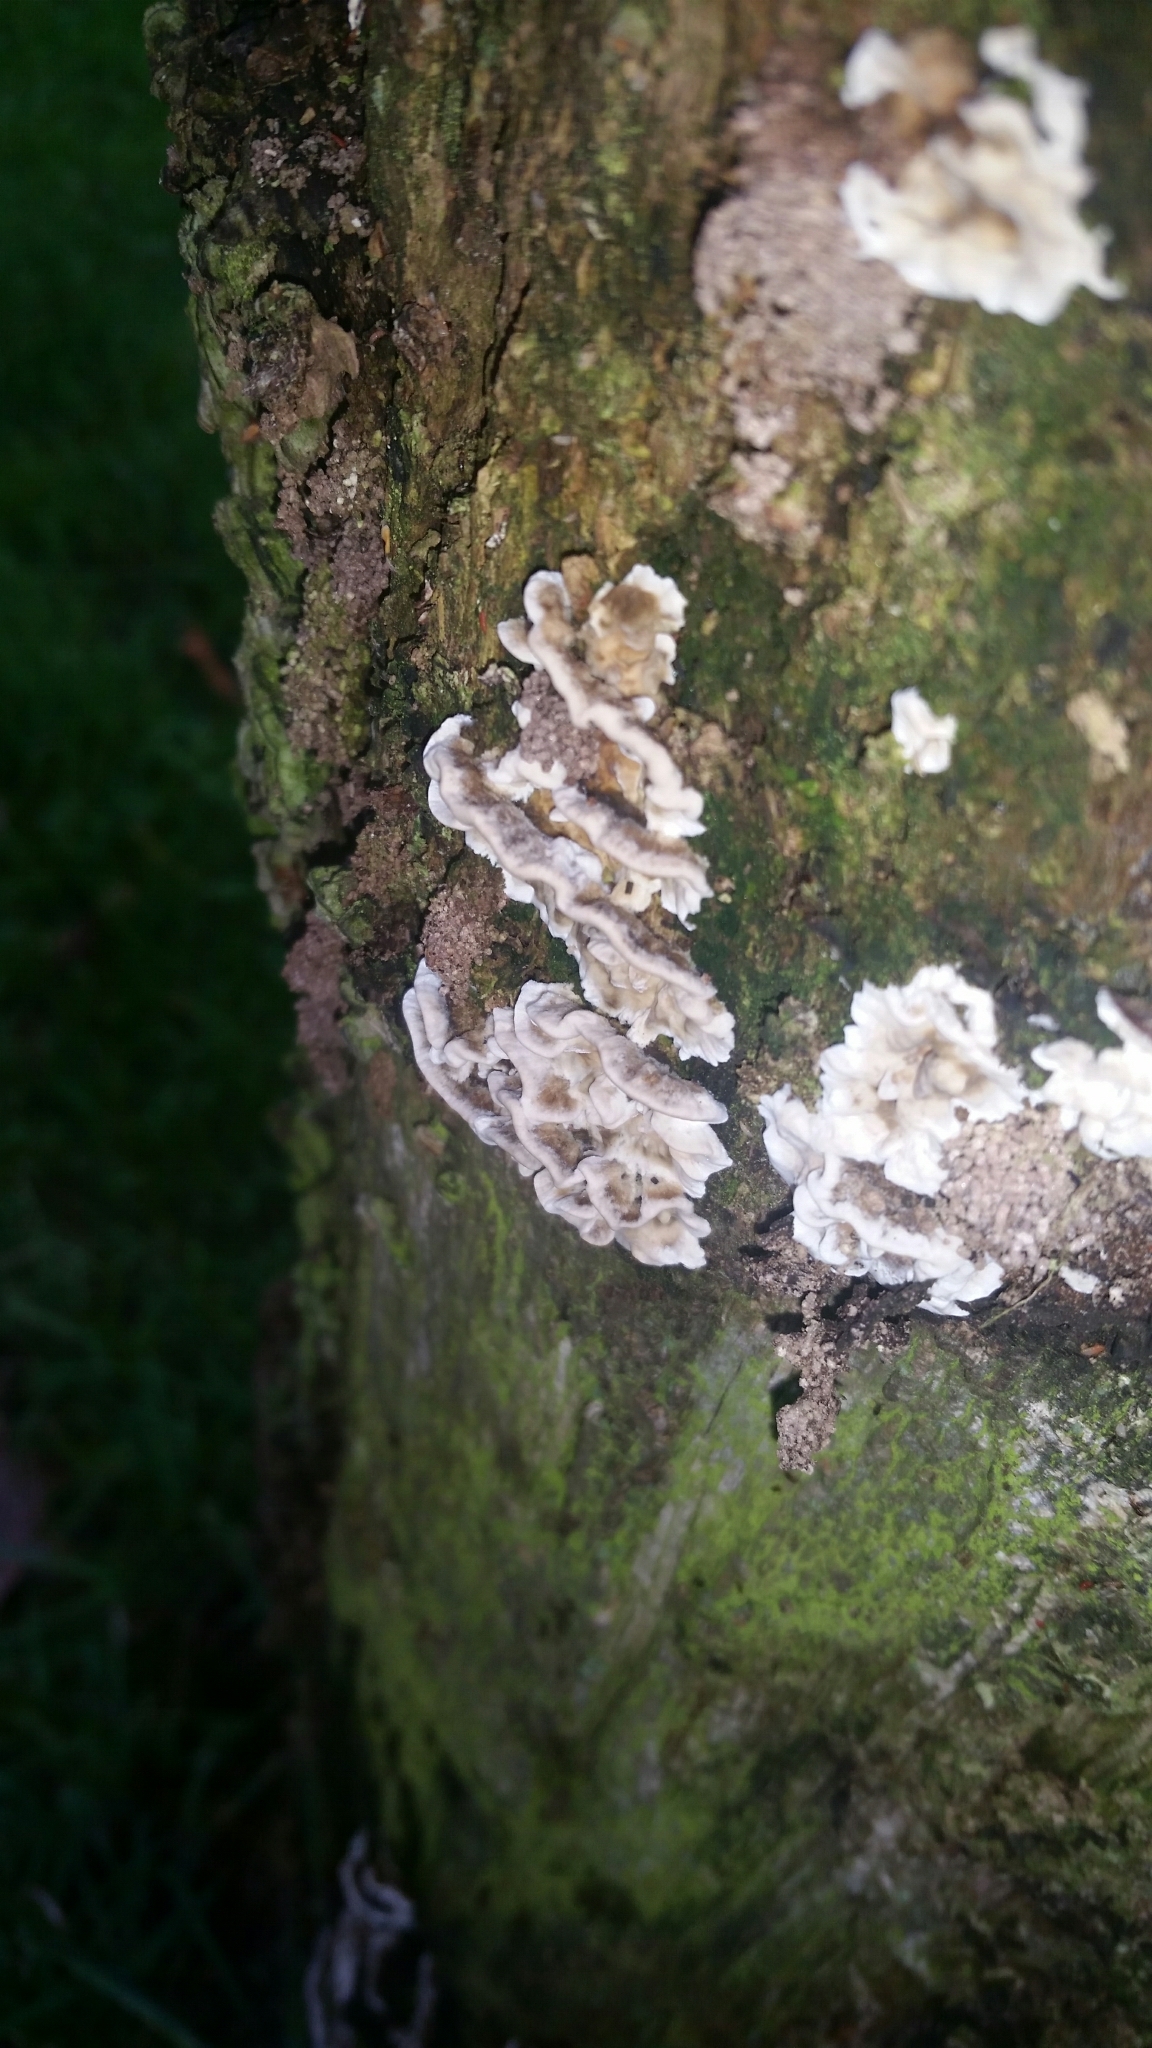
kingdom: Fungi
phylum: Basidiomycota
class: Agaricomycetes
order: Polyporales
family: Phanerochaetaceae
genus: Bjerkandera
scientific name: Bjerkandera adusta
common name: Smoky bracket
